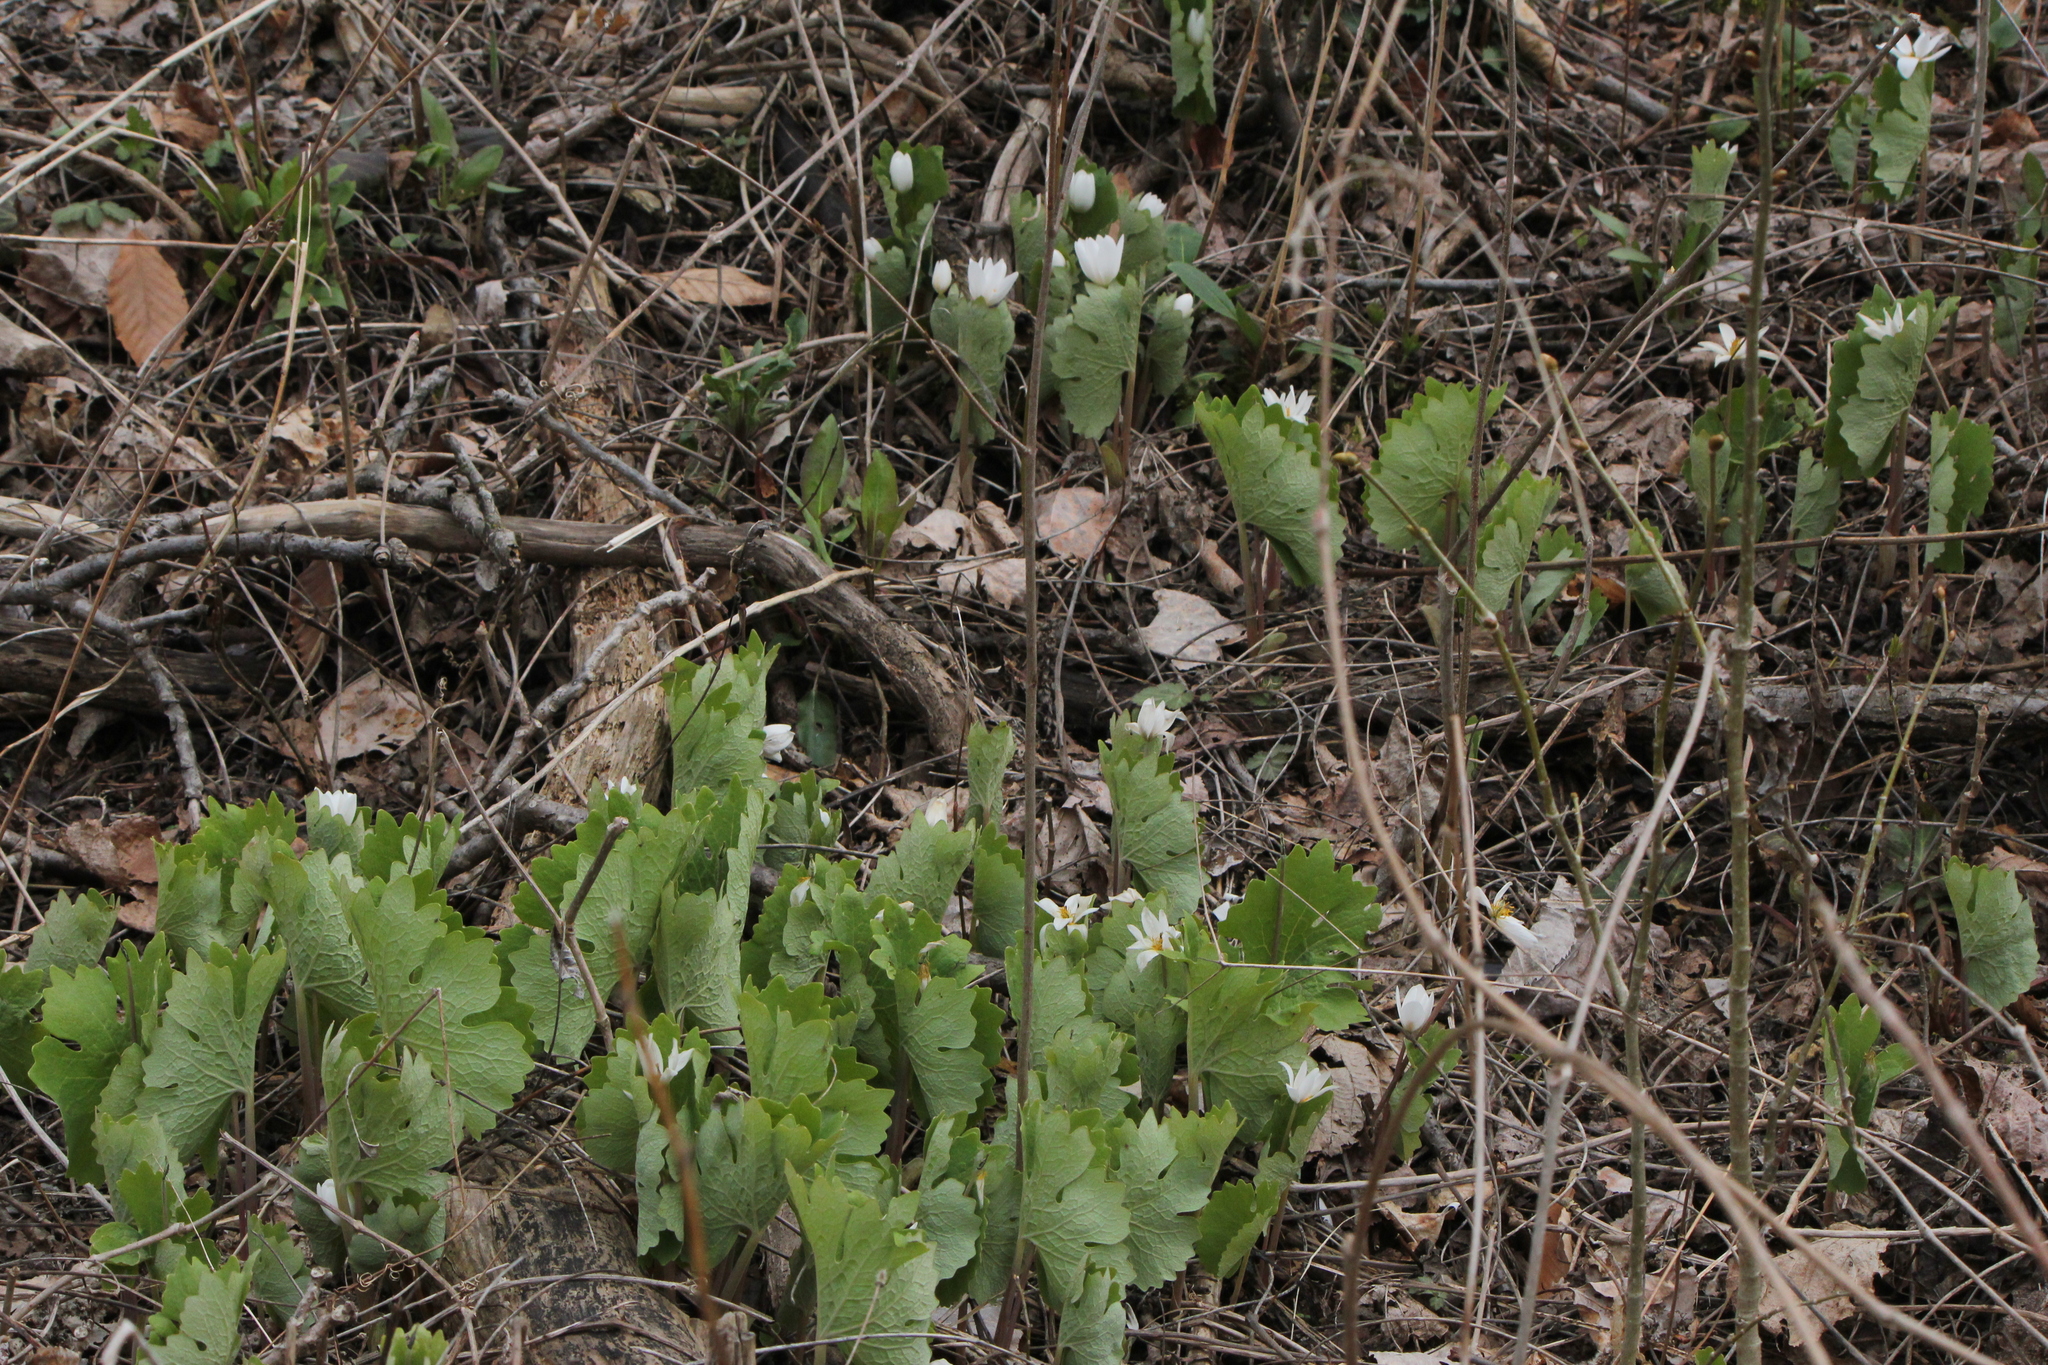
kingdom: Plantae
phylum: Tracheophyta
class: Magnoliopsida
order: Ranunculales
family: Papaveraceae
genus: Sanguinaria
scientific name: Sanguinaria canadensis
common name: Bloodroot
